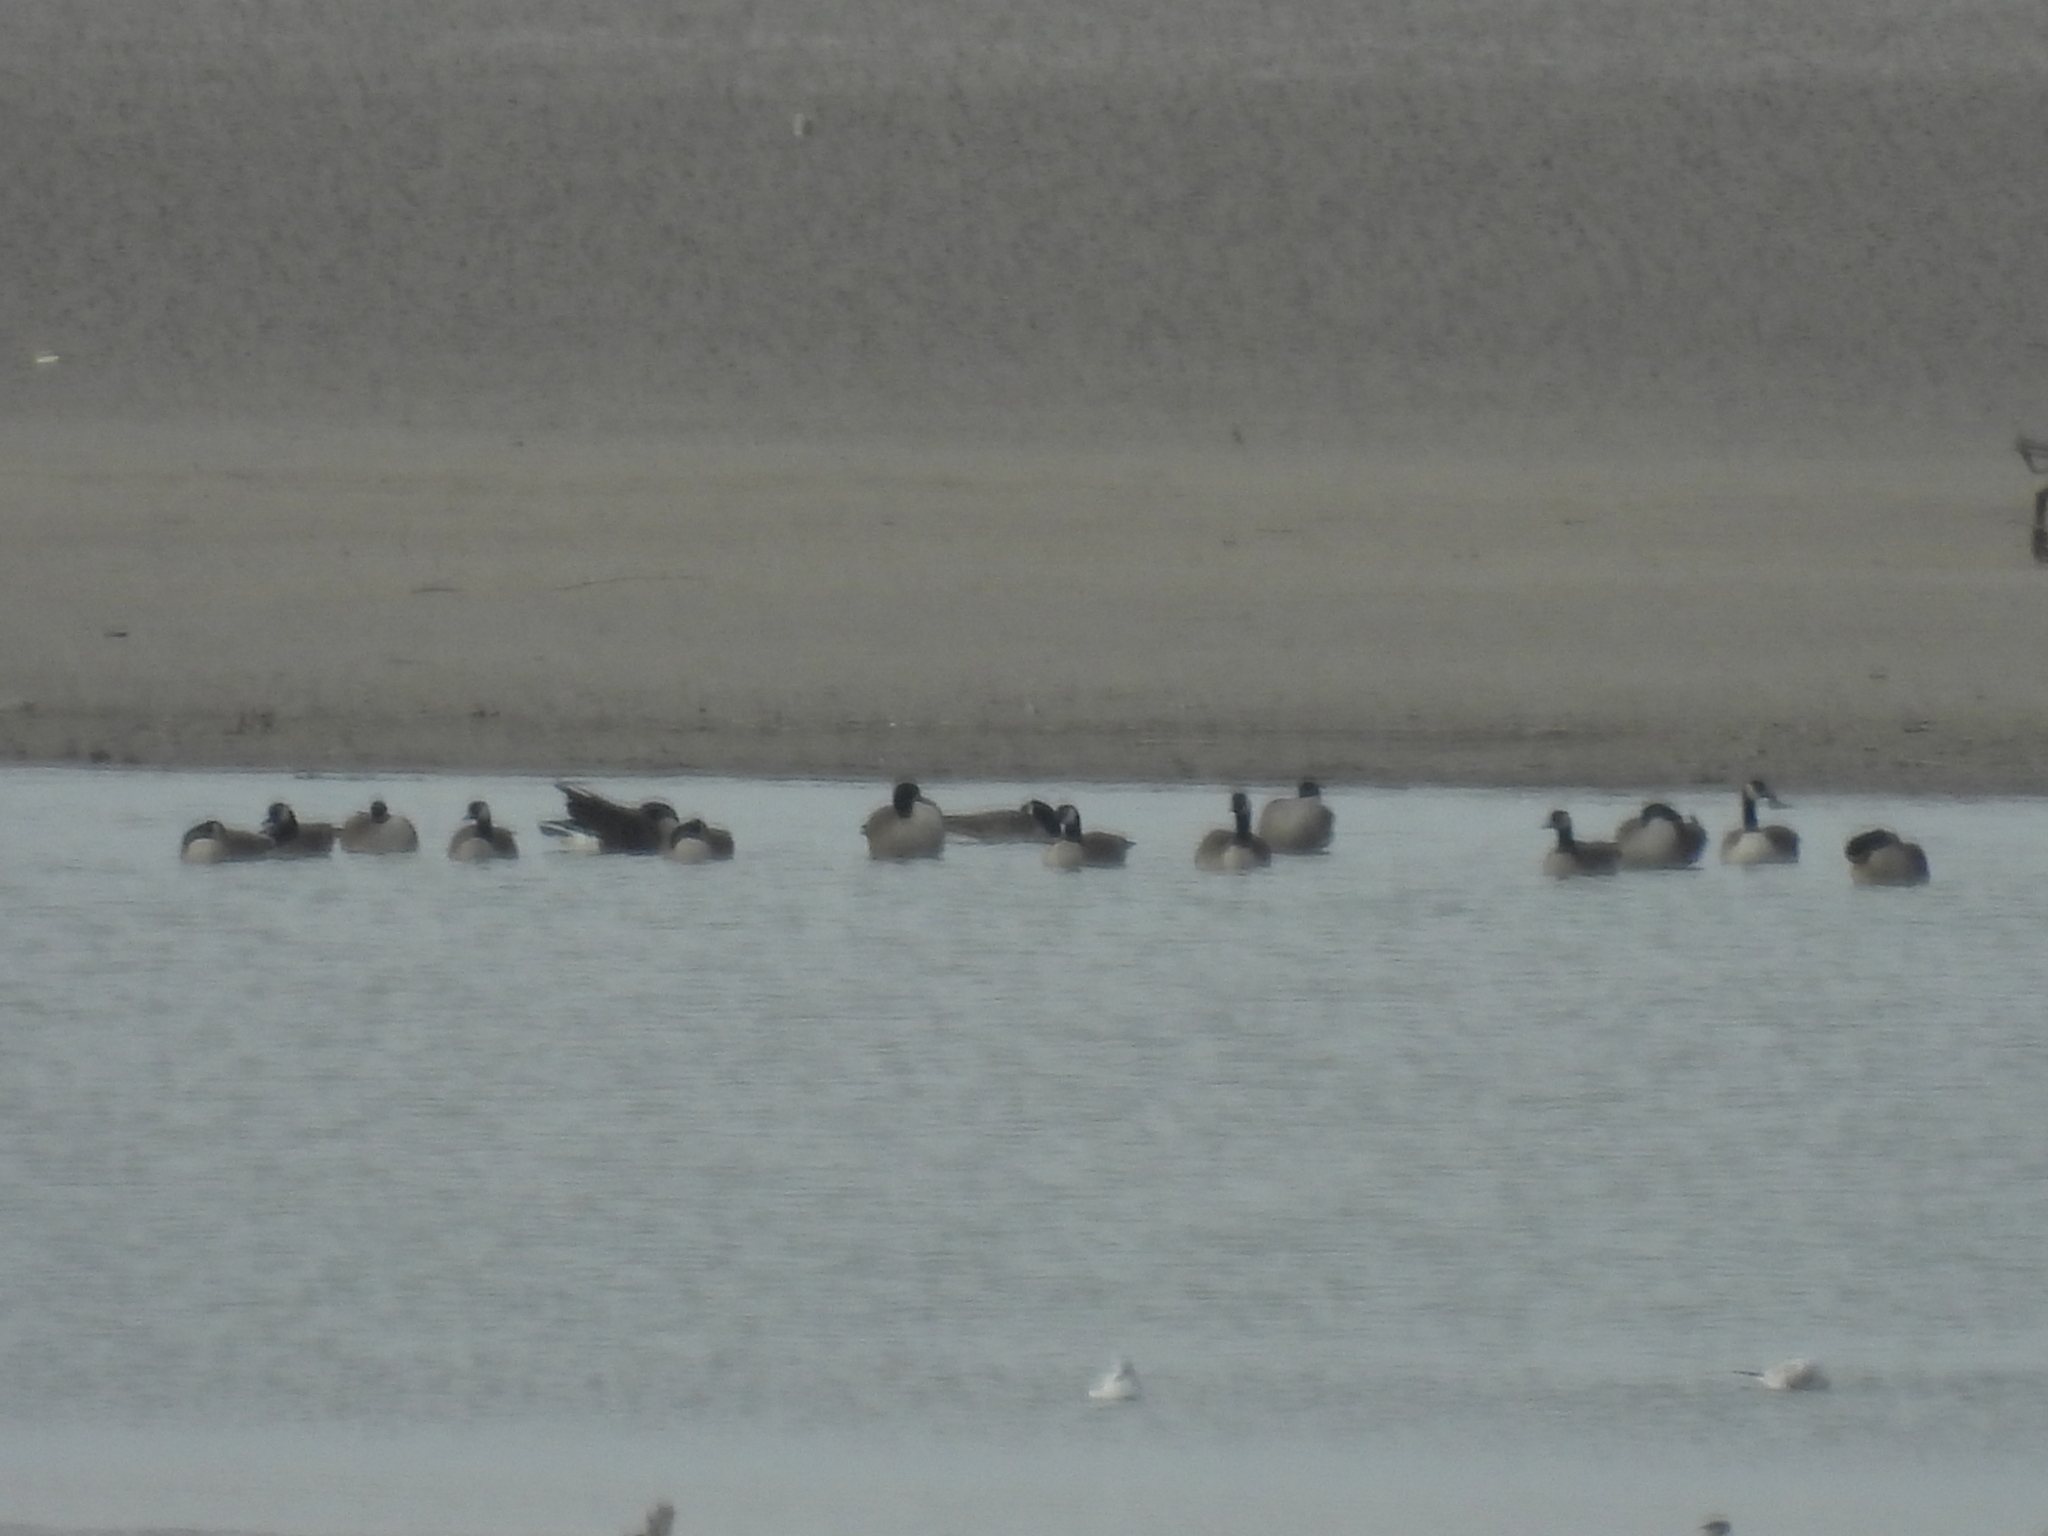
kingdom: Animalia
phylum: Chordata
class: Aves
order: Anseriformes
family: Anatidae
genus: Branta
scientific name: Branta canadensis
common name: Canada goose
